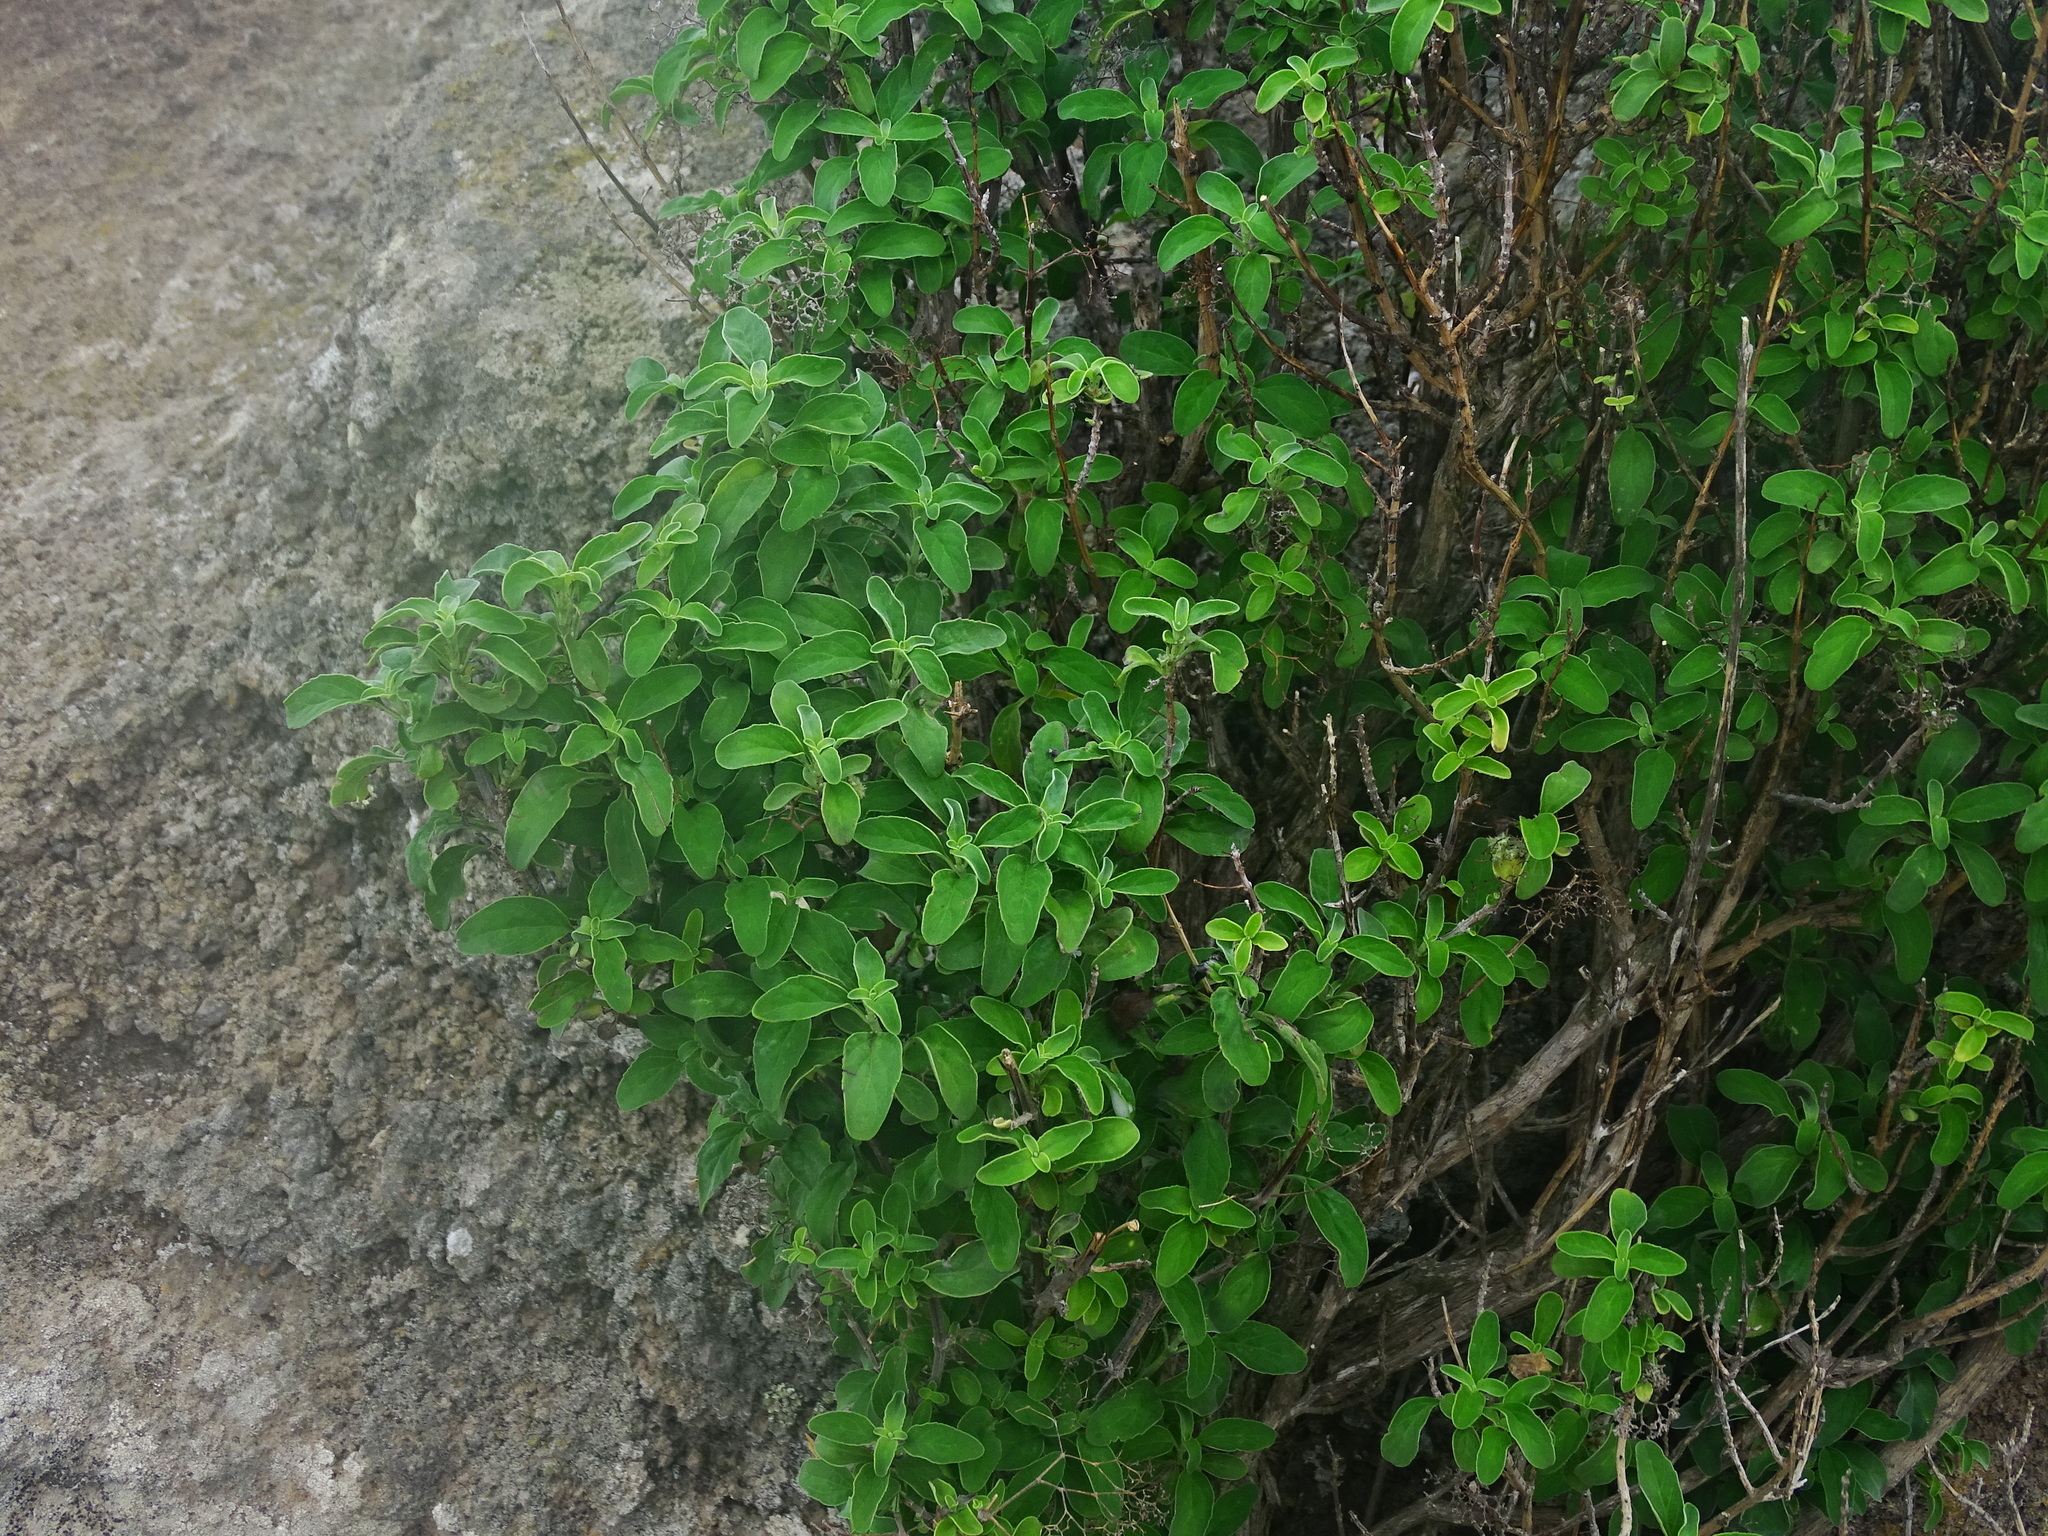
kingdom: Plantae
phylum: Tracheophyta
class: Magnoliopsida
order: Lamiales
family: Lamiaceae
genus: Bystropogon
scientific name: Bystropogon origanifolius
